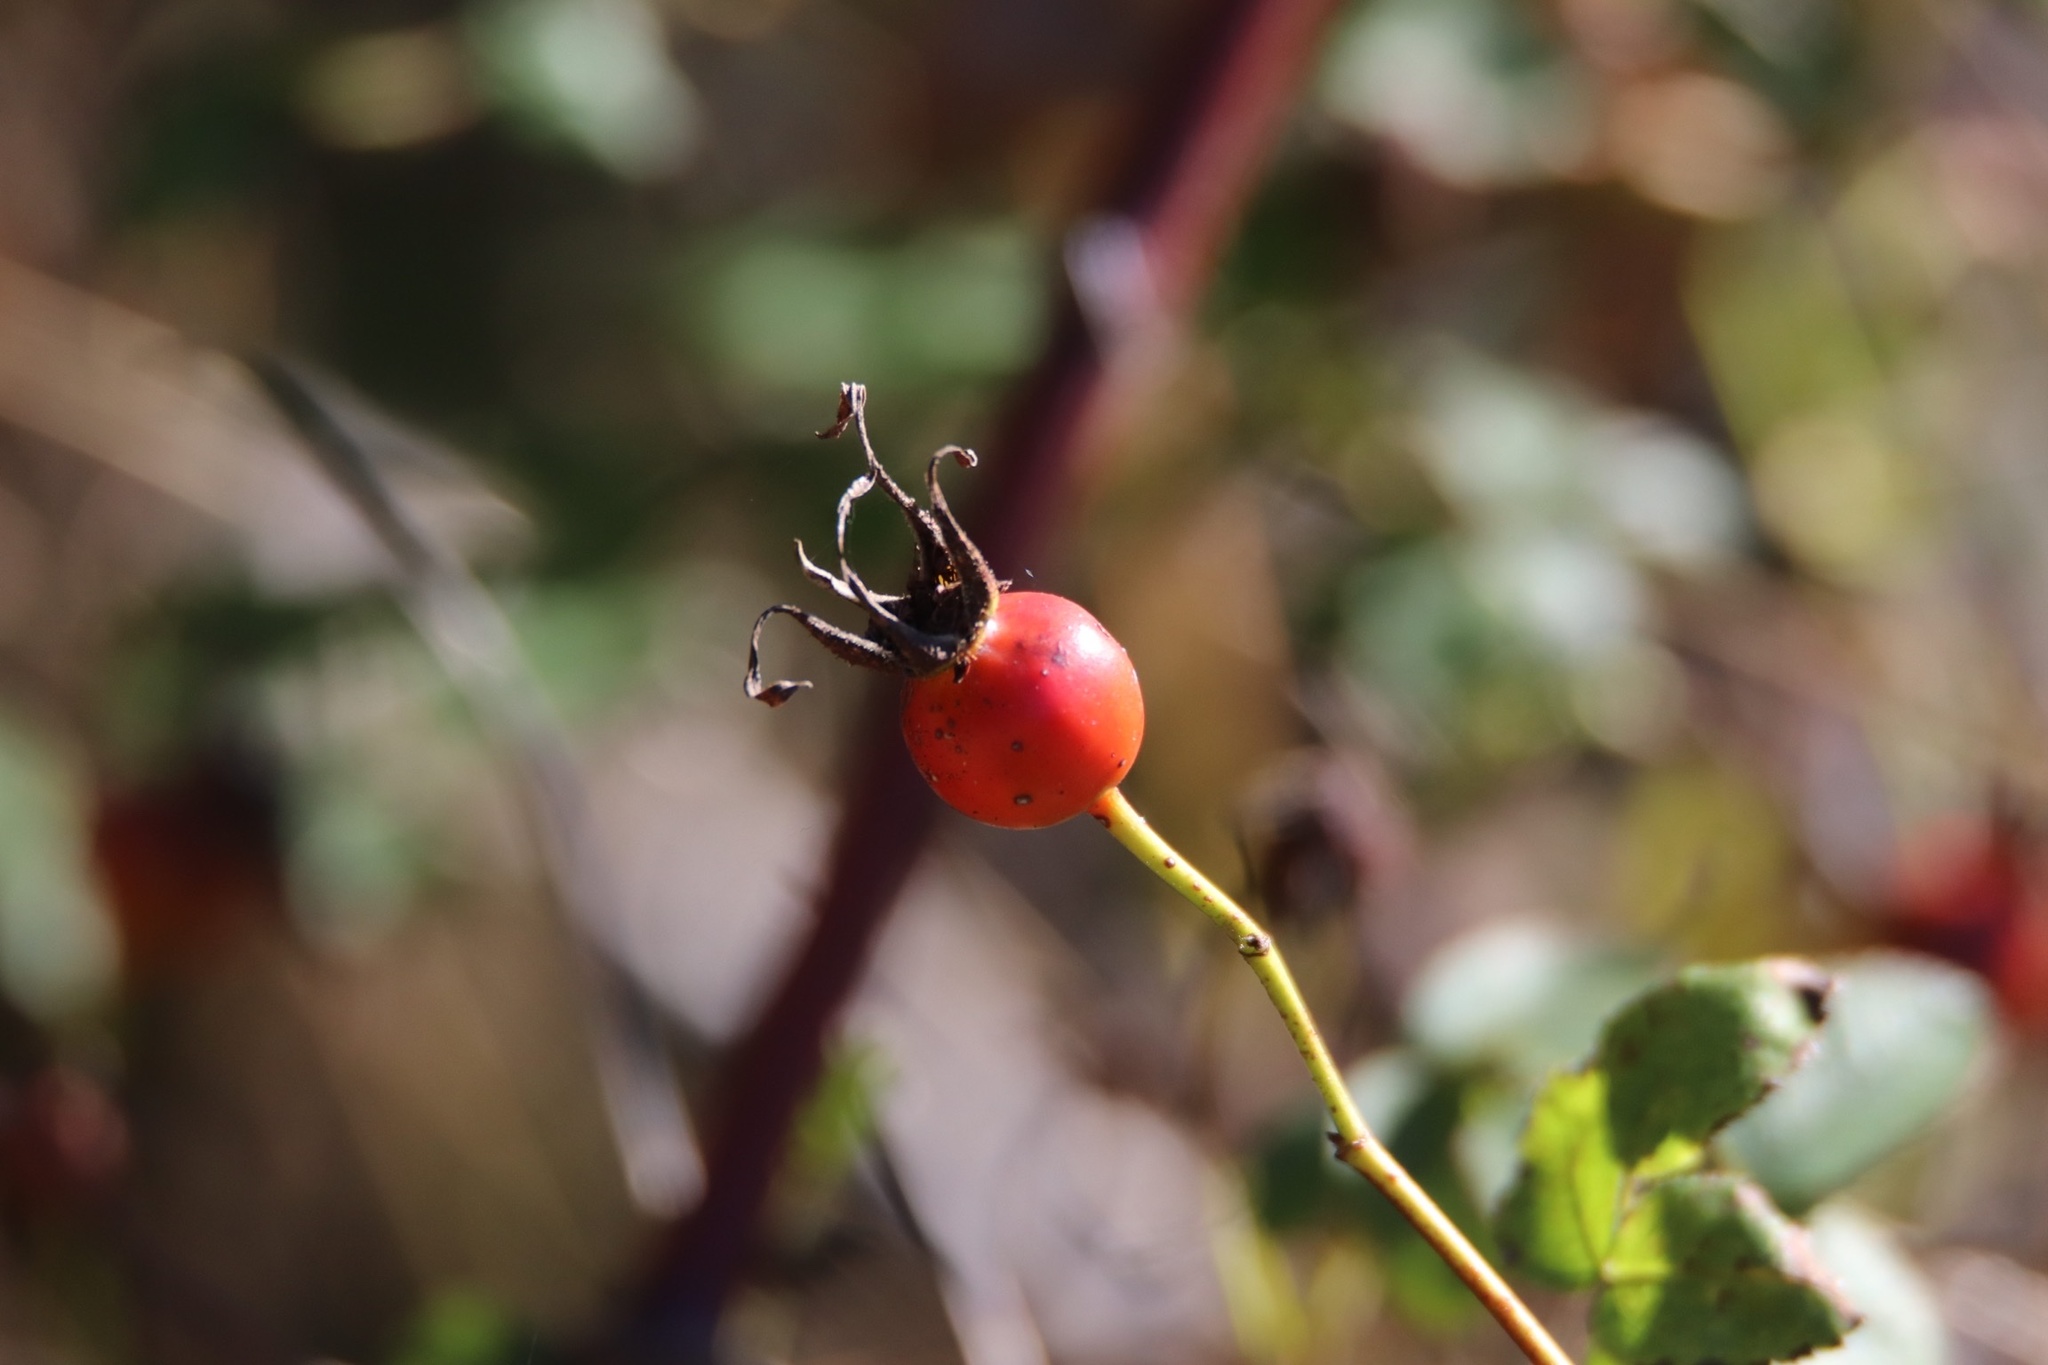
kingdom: Plantae
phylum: Tracheophyta
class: Magnoliopsida
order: Rosales
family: Rosaceae
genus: Rosa
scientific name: Rosa nutkana
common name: Nootka rose
